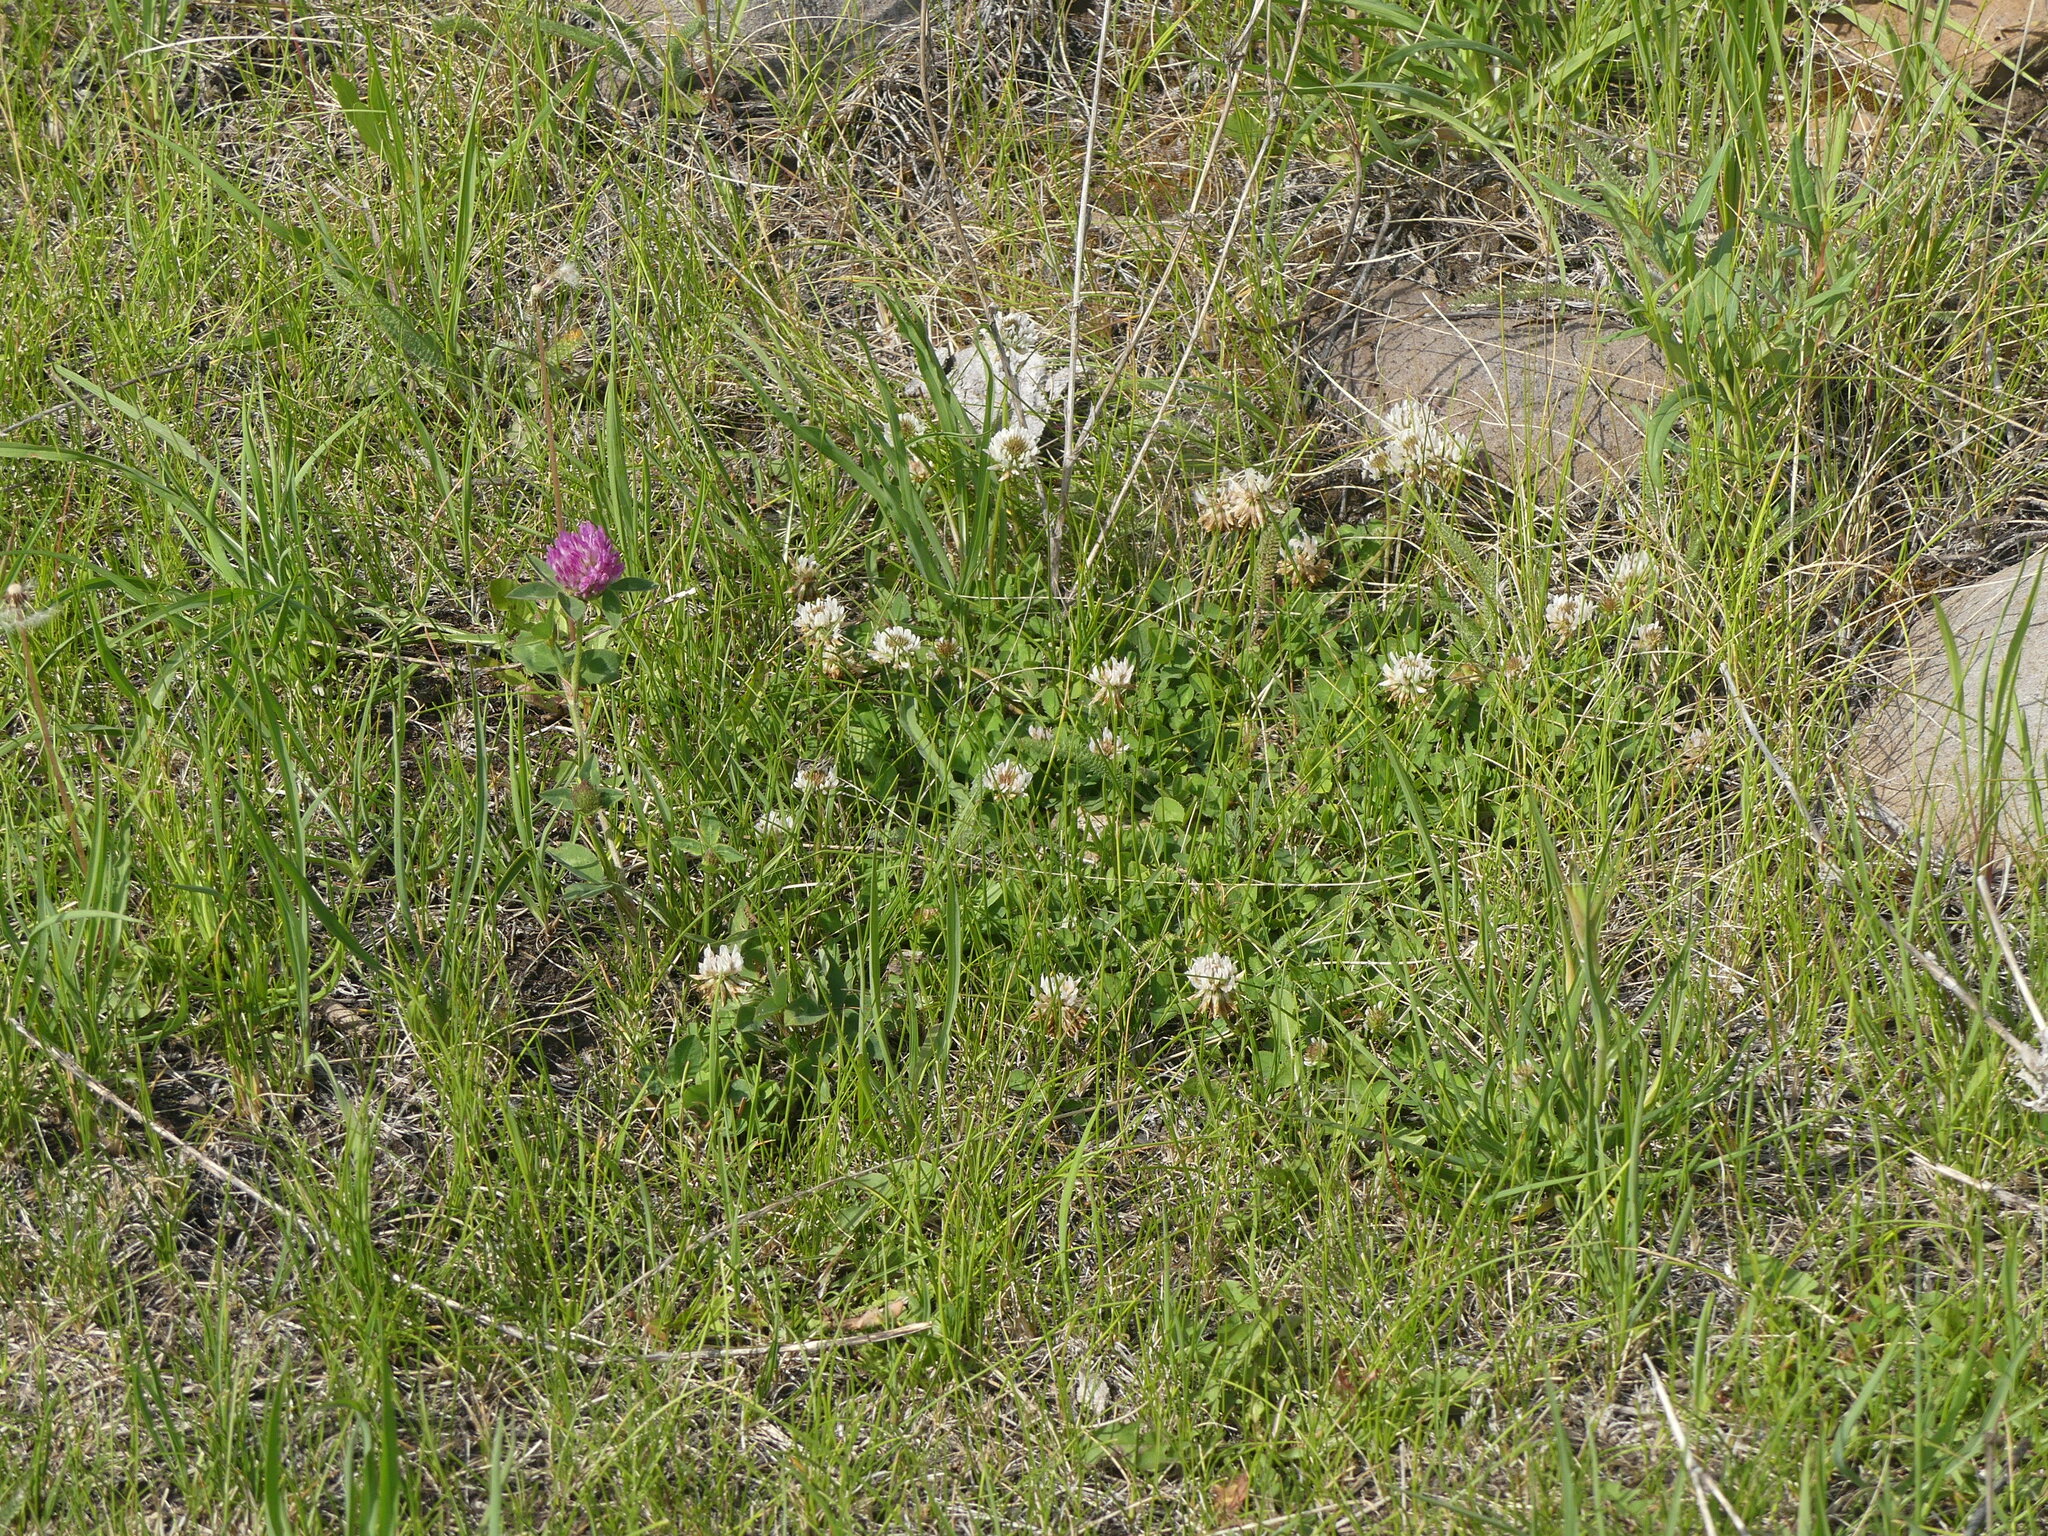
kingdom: Plantae
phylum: Tracheophyta
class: Magnoliopsida
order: Fabales
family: Fabaceae
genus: Trifolium
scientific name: Trifolium pratense
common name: Red clover
